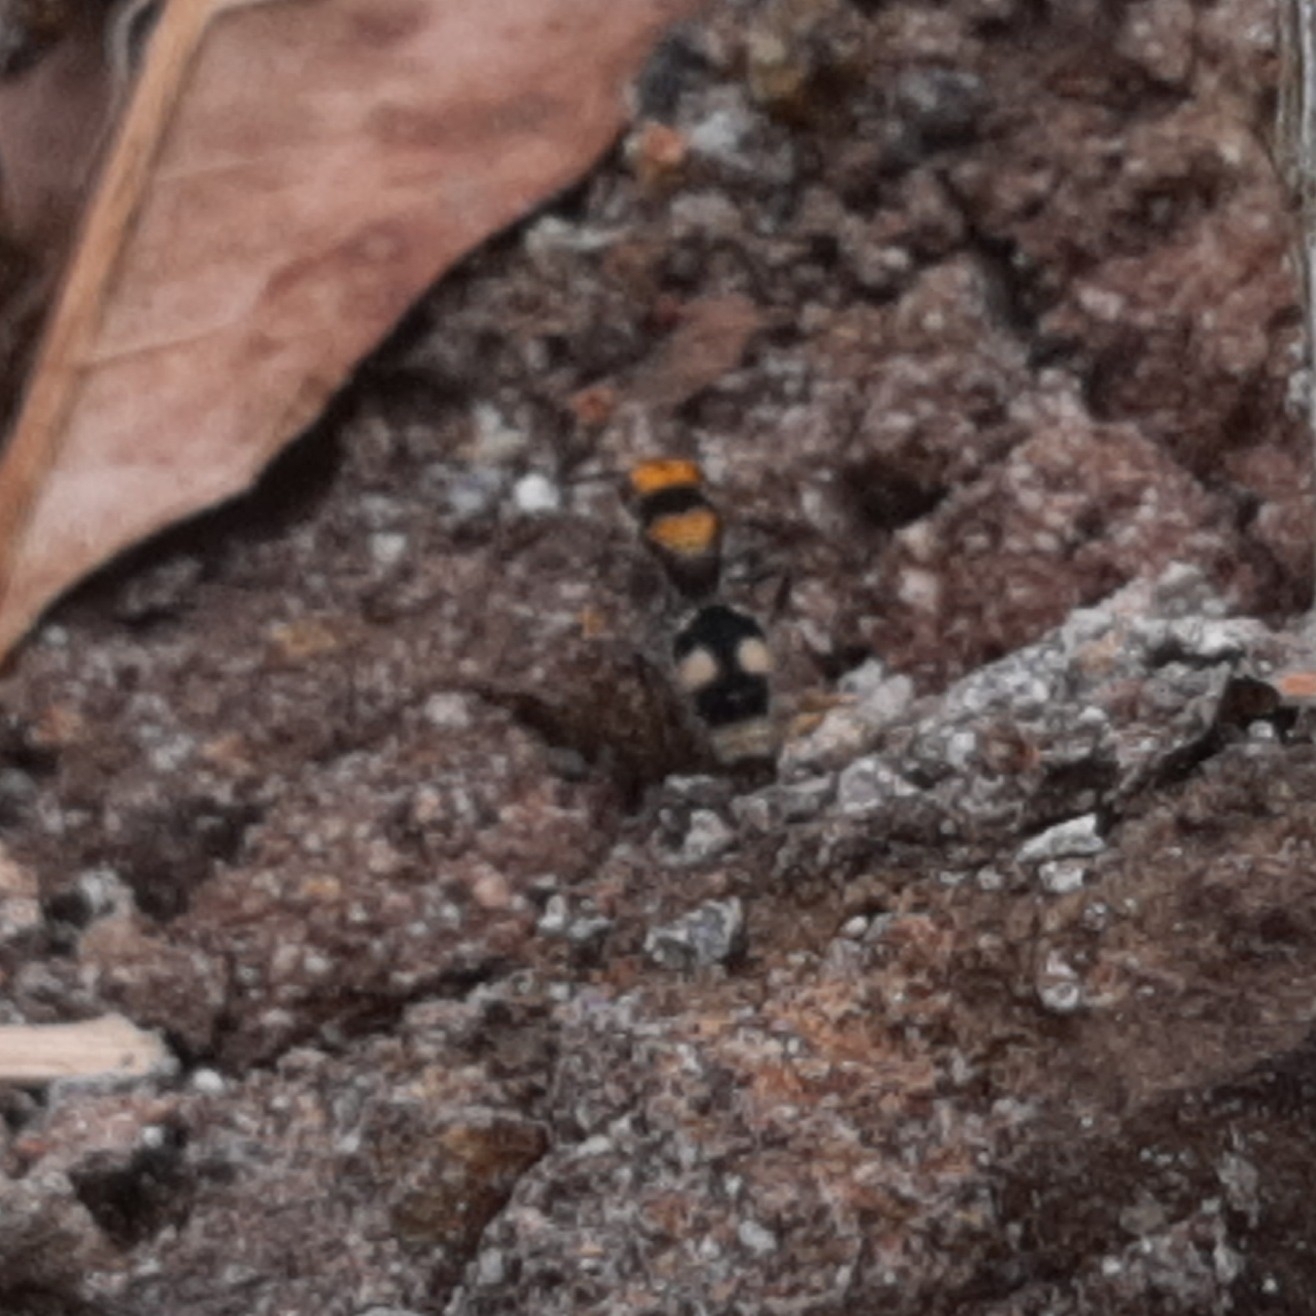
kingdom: Animalia
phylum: Arthropoda
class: Insecta
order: Hymenoptera
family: Mutillidae
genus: Dasymutilla
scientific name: Dasymutilla
